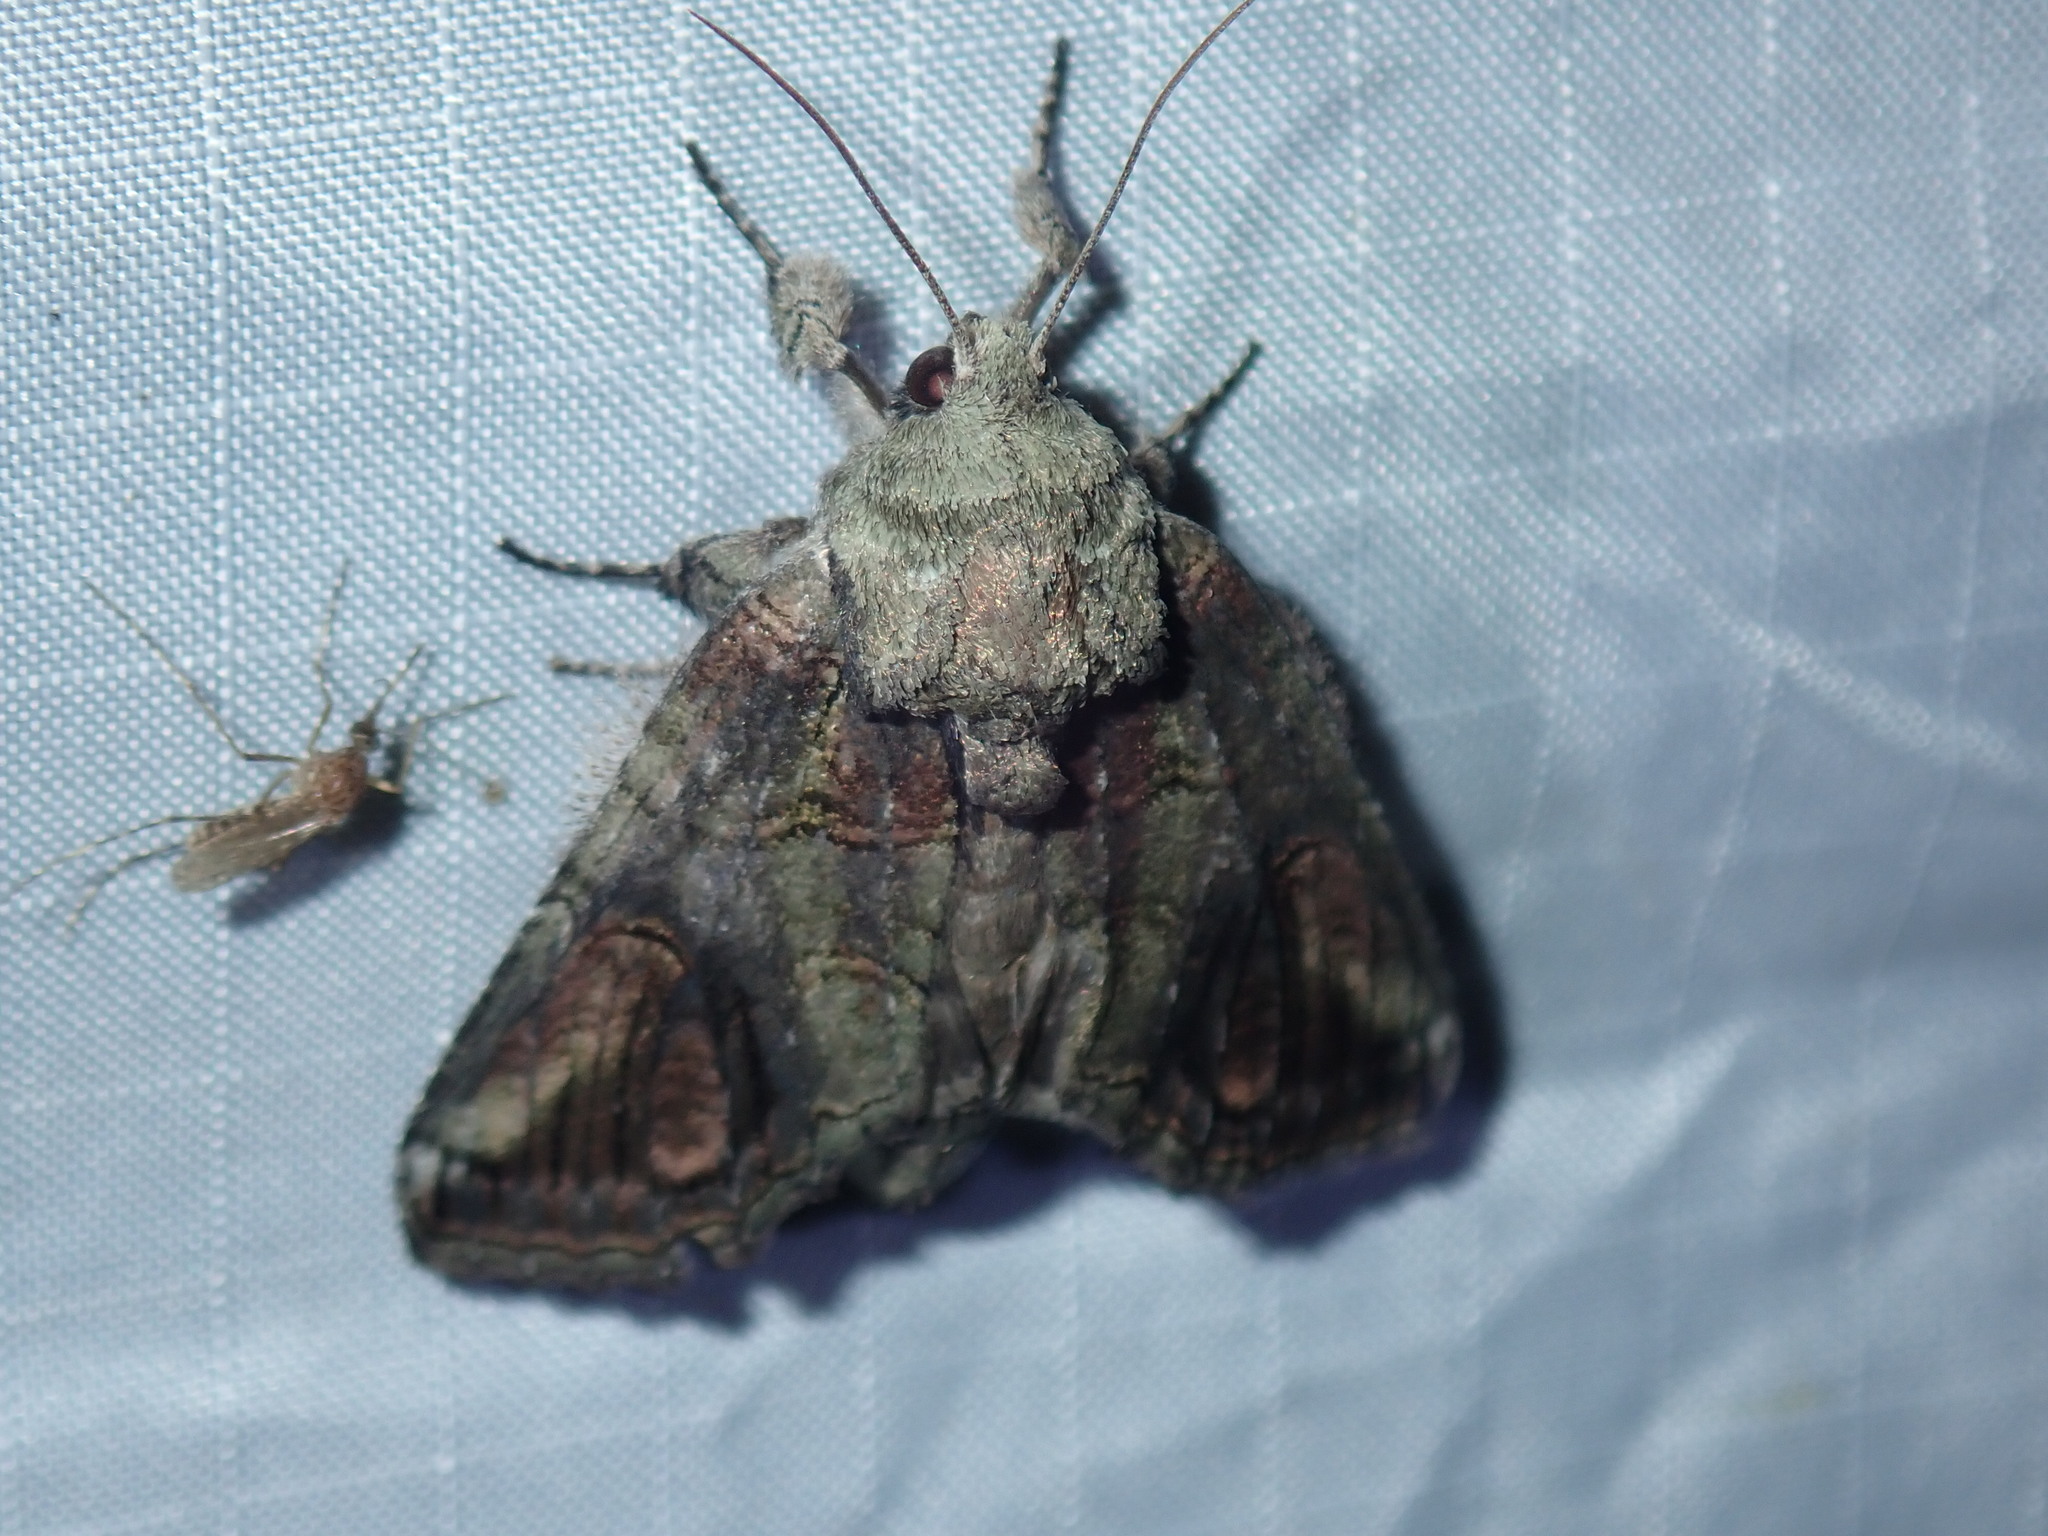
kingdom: Animalia
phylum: Arthropoda
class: Insecta
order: Lepidoptera
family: Notodontidae
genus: Heterocampa
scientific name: Heterocampa obliqua
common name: Oblique heterocampa
